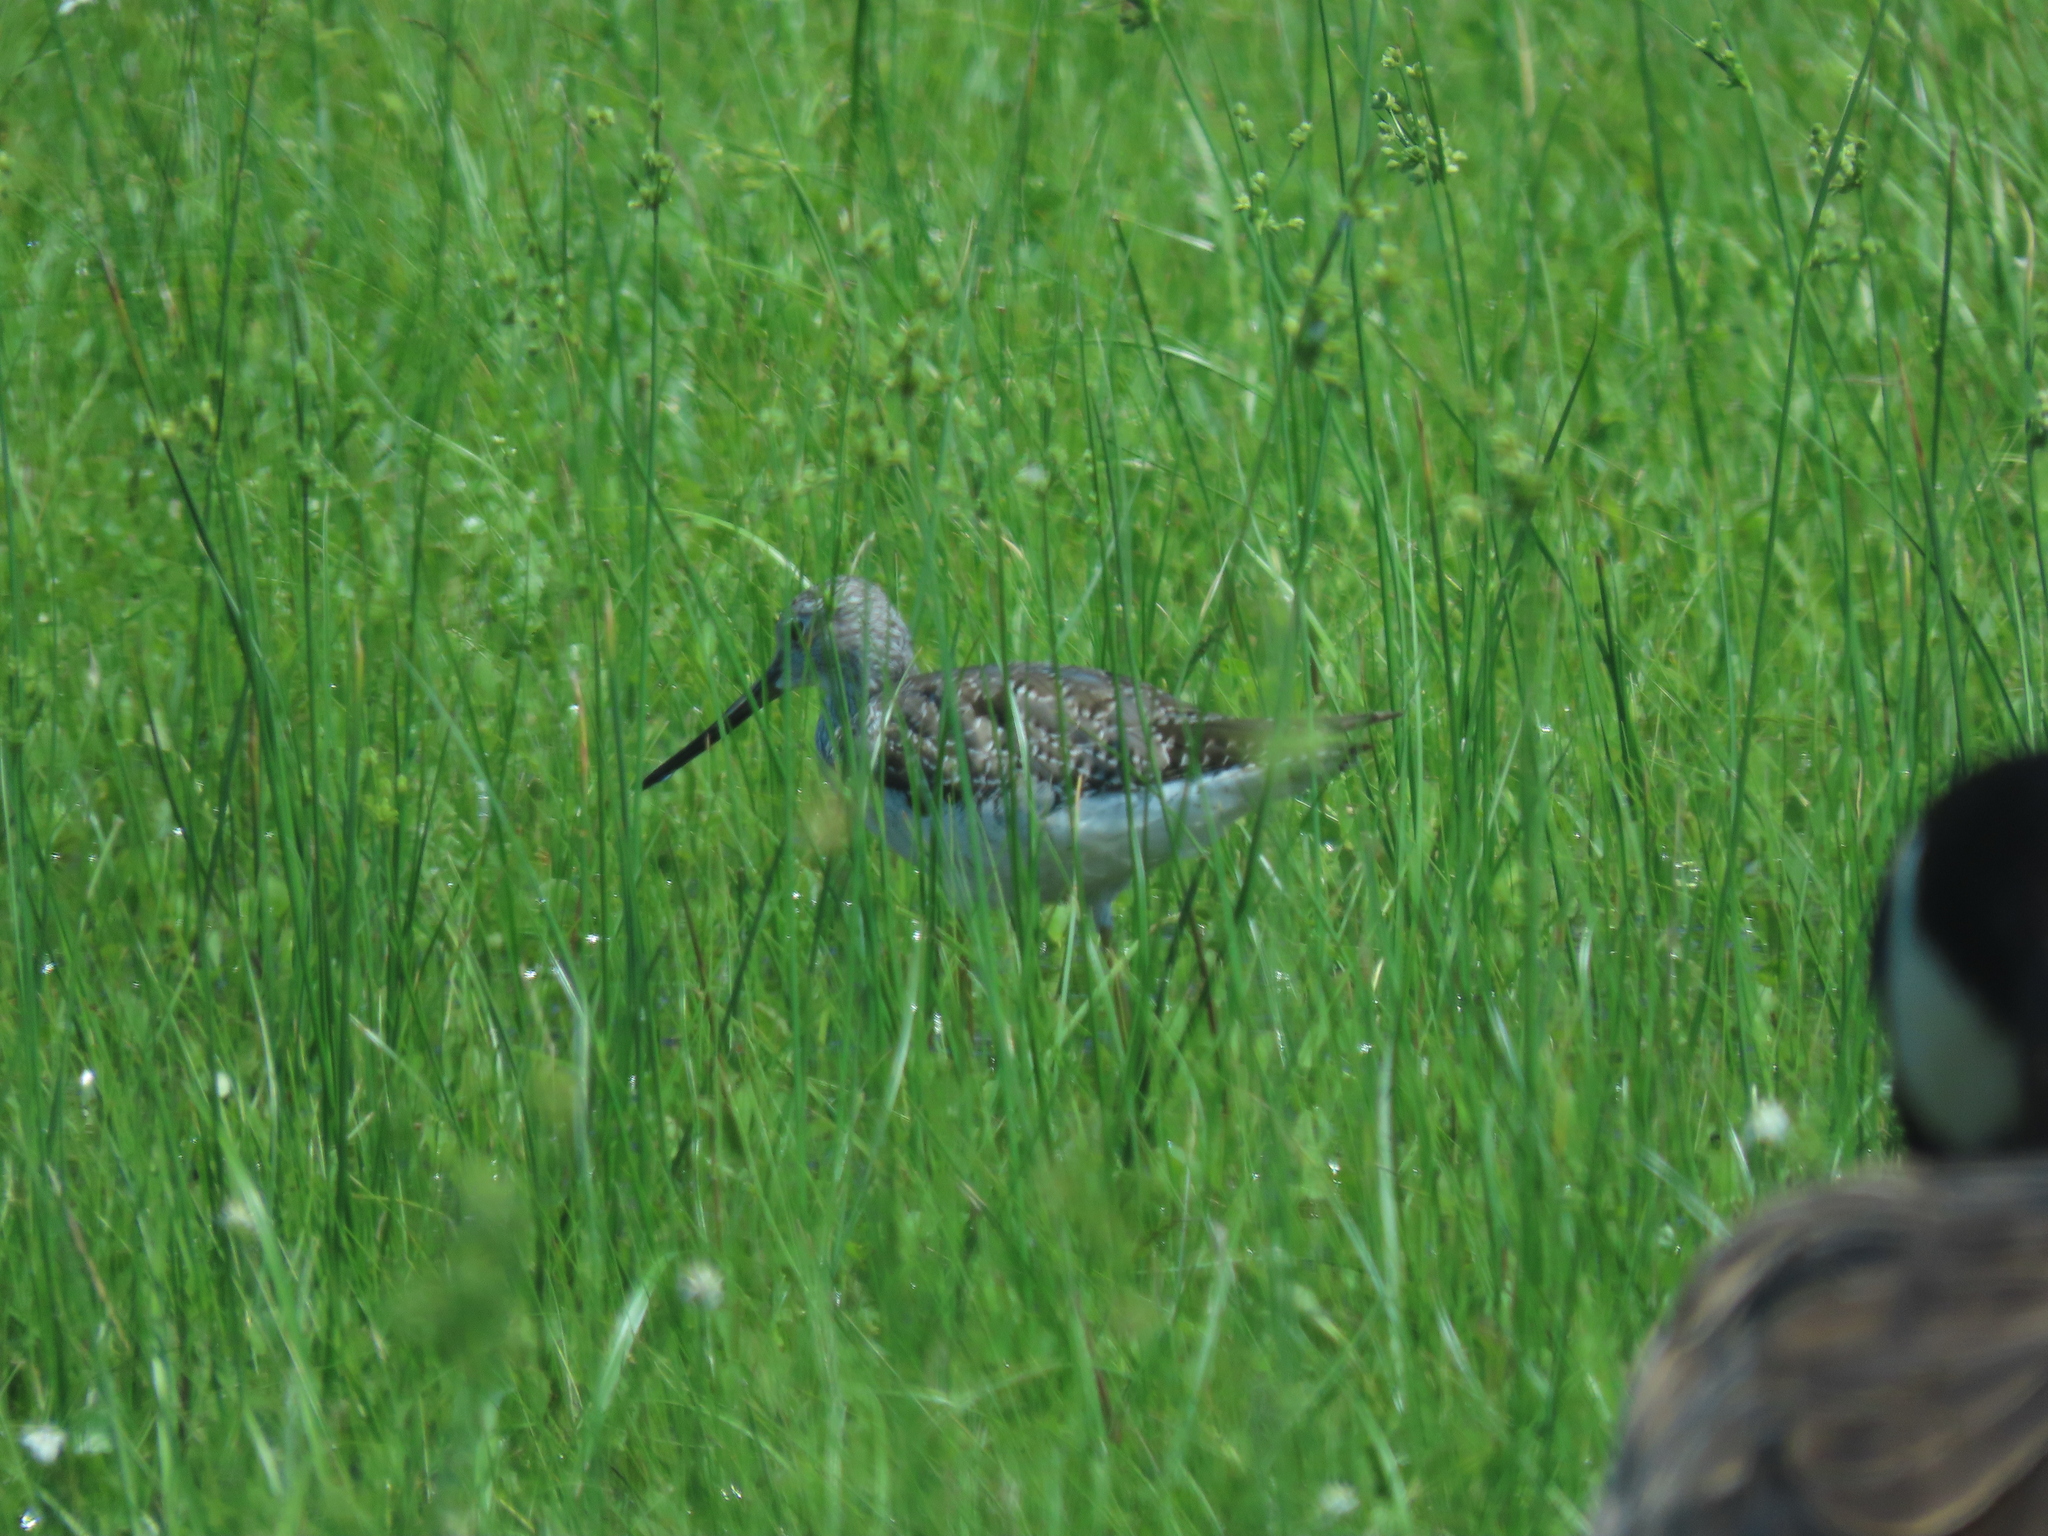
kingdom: Animalia
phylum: Chordata
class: Aves
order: Charadriiformes
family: Scolopacidae
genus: Tringa
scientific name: Tringa melanoleuca
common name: Greater yellowlegs
